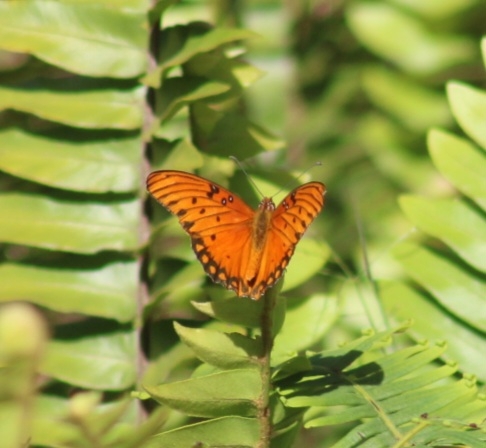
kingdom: Animalia
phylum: Arthropoda
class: Insecta
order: Lepidoptera
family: Nymphalidae
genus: Dione
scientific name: Dione vanillae
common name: Gulf fritillary
